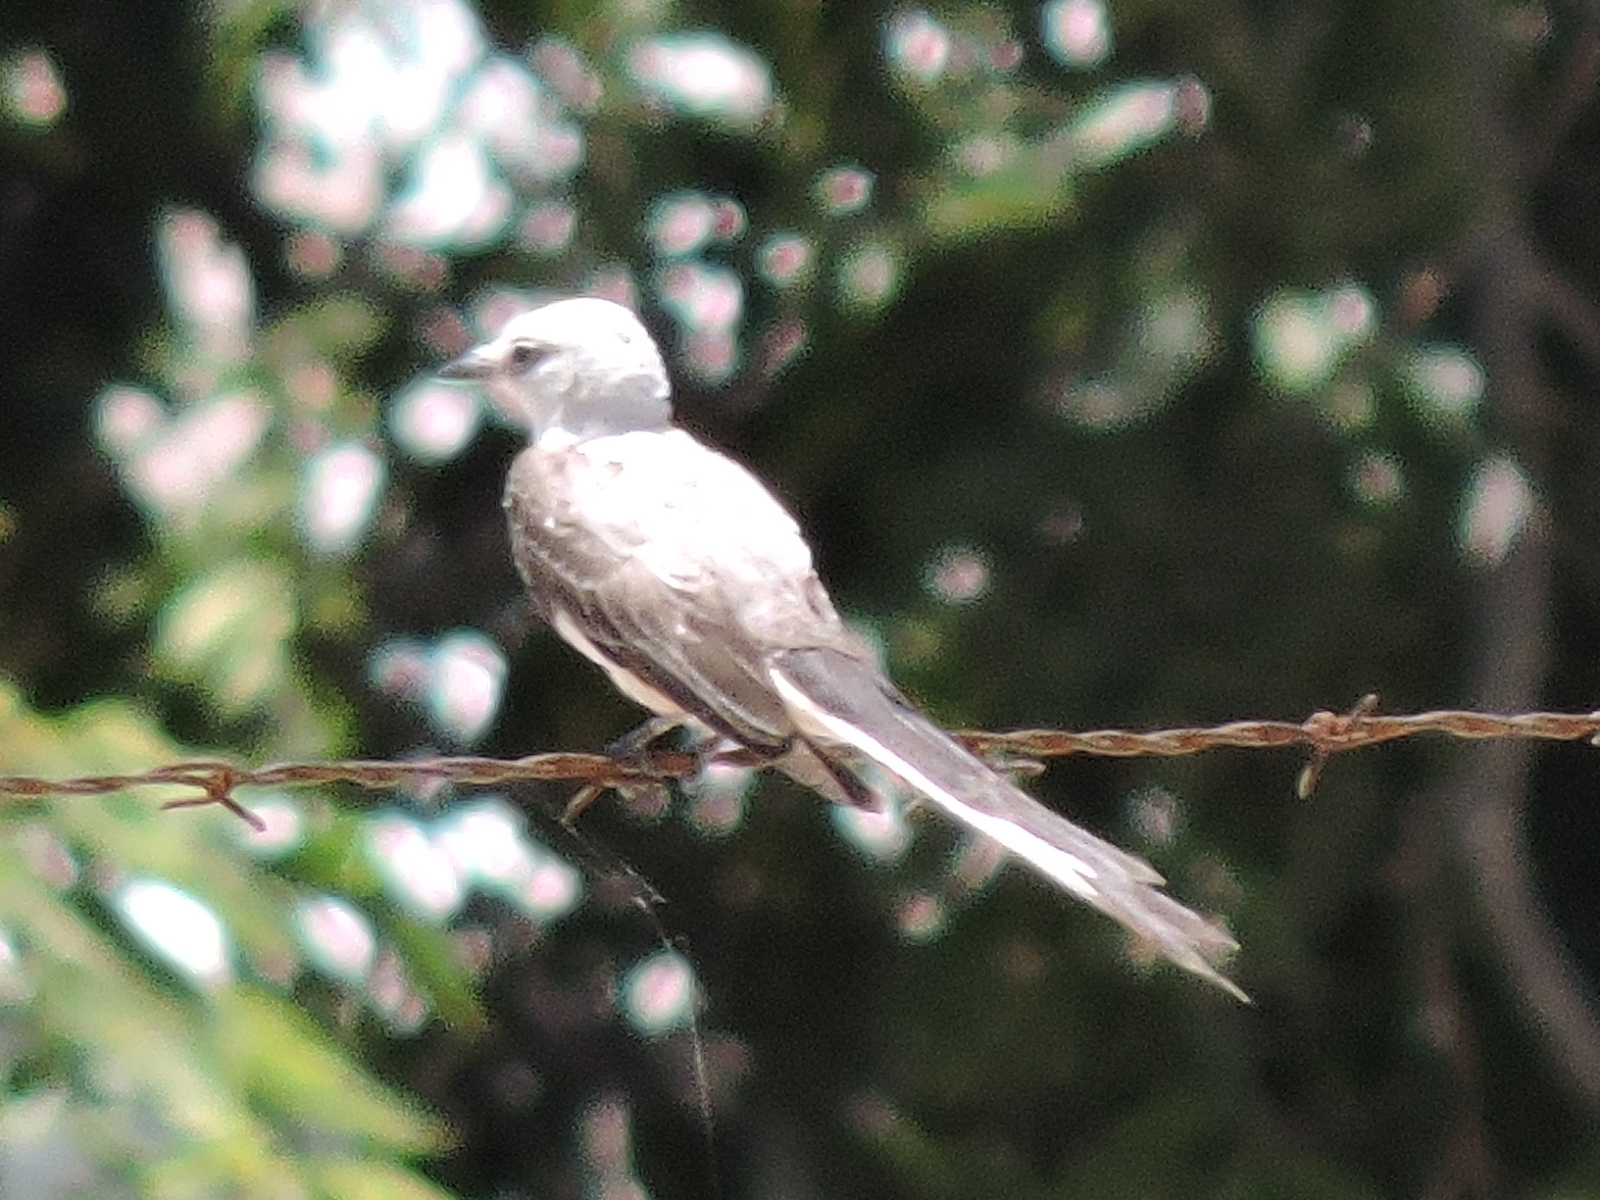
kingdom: Animalia
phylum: Chordata
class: Aves
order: Passeriformes
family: Tyrannidae
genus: Tyrannus
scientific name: Tyrannus forficatus
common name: Scissor-tailed flycatcher
